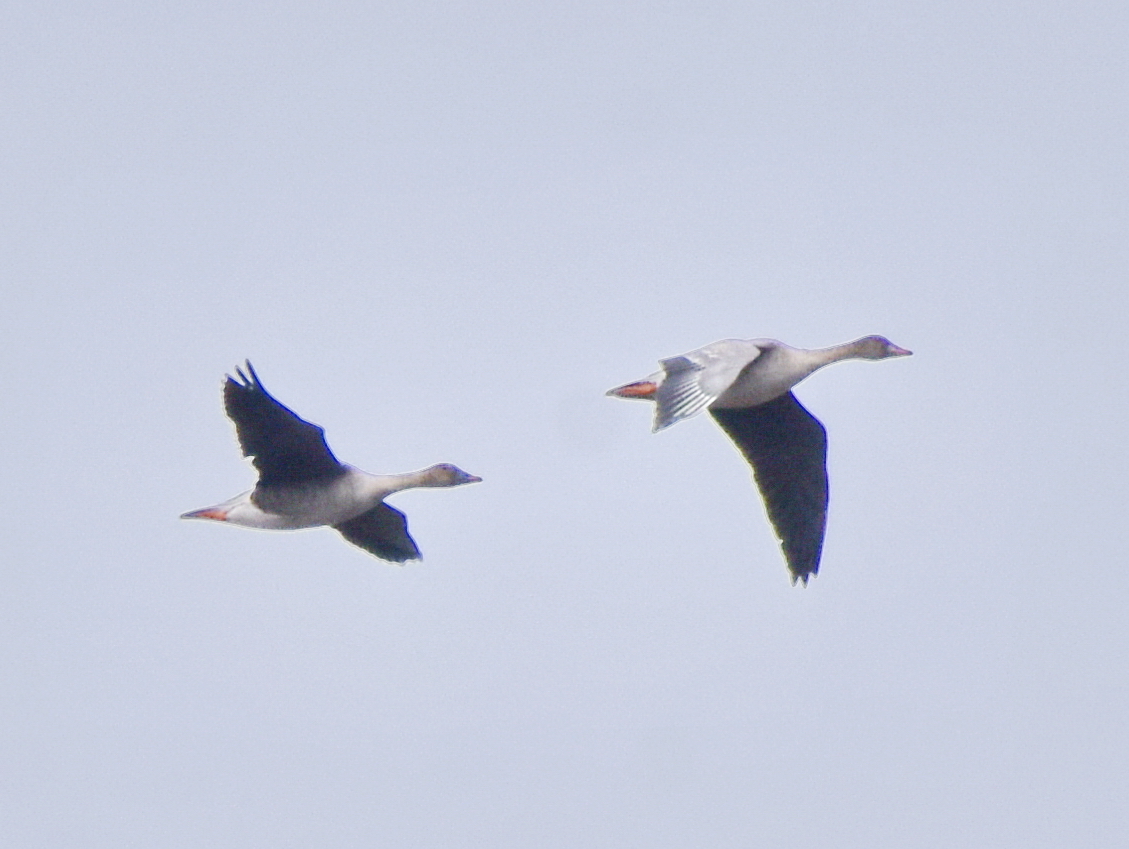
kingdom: Animalia
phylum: Chordata
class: Aves
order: Anseriformes
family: Anatidae
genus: Anser
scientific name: Anser fabalis
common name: Bean goose
